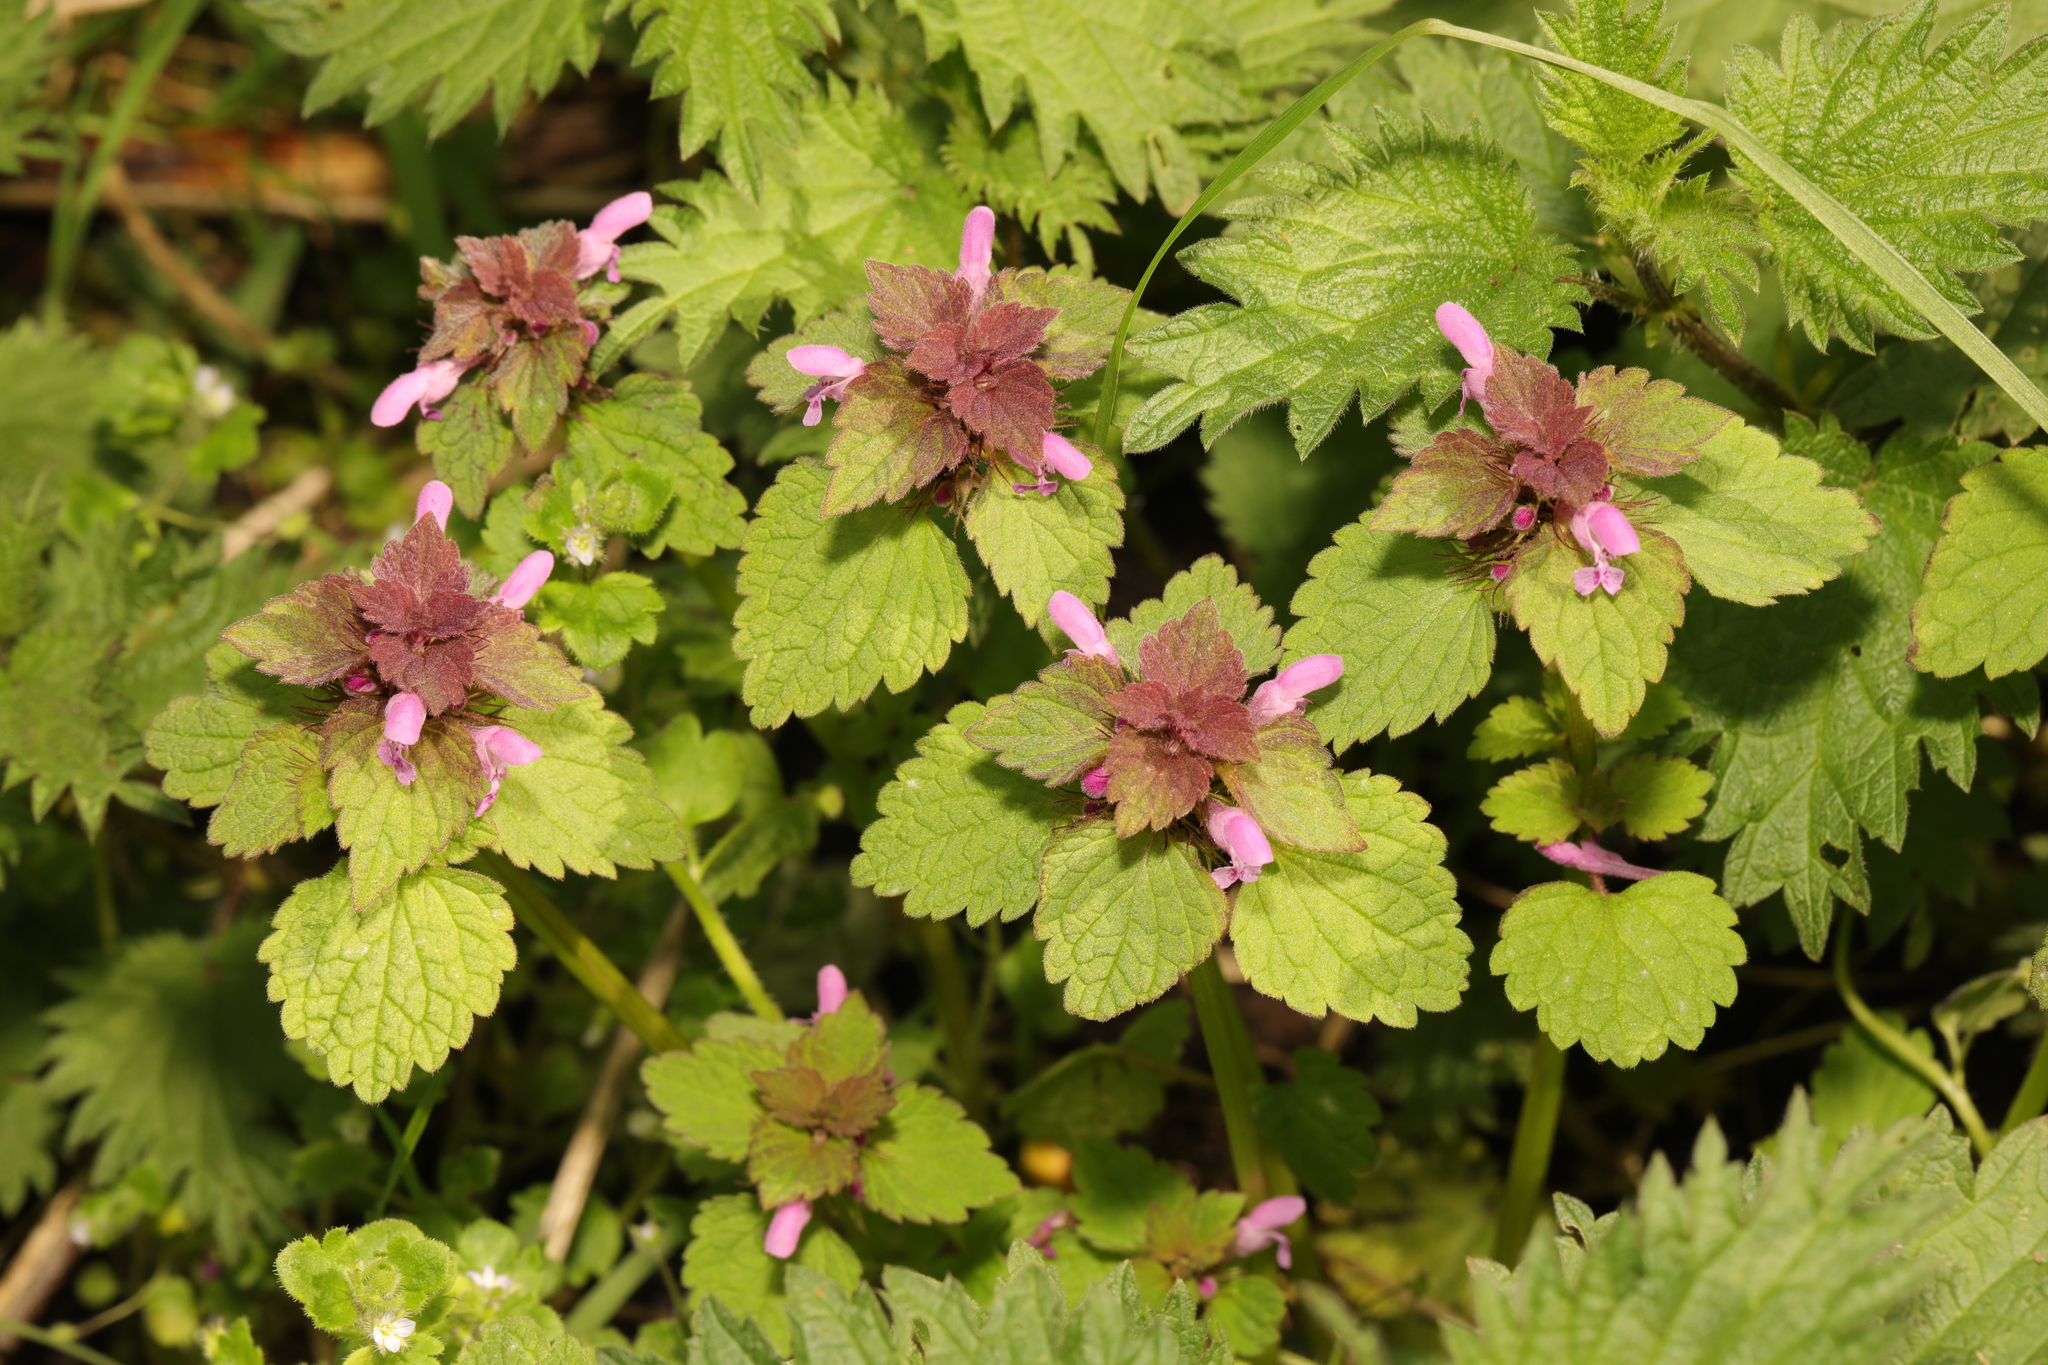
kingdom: Plantae
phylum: Tracheophyta
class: Magnoliopsida
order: Lamiales
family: Lamiaceae
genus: Lamium
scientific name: Lamium purpureum
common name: Red dead-nettle
